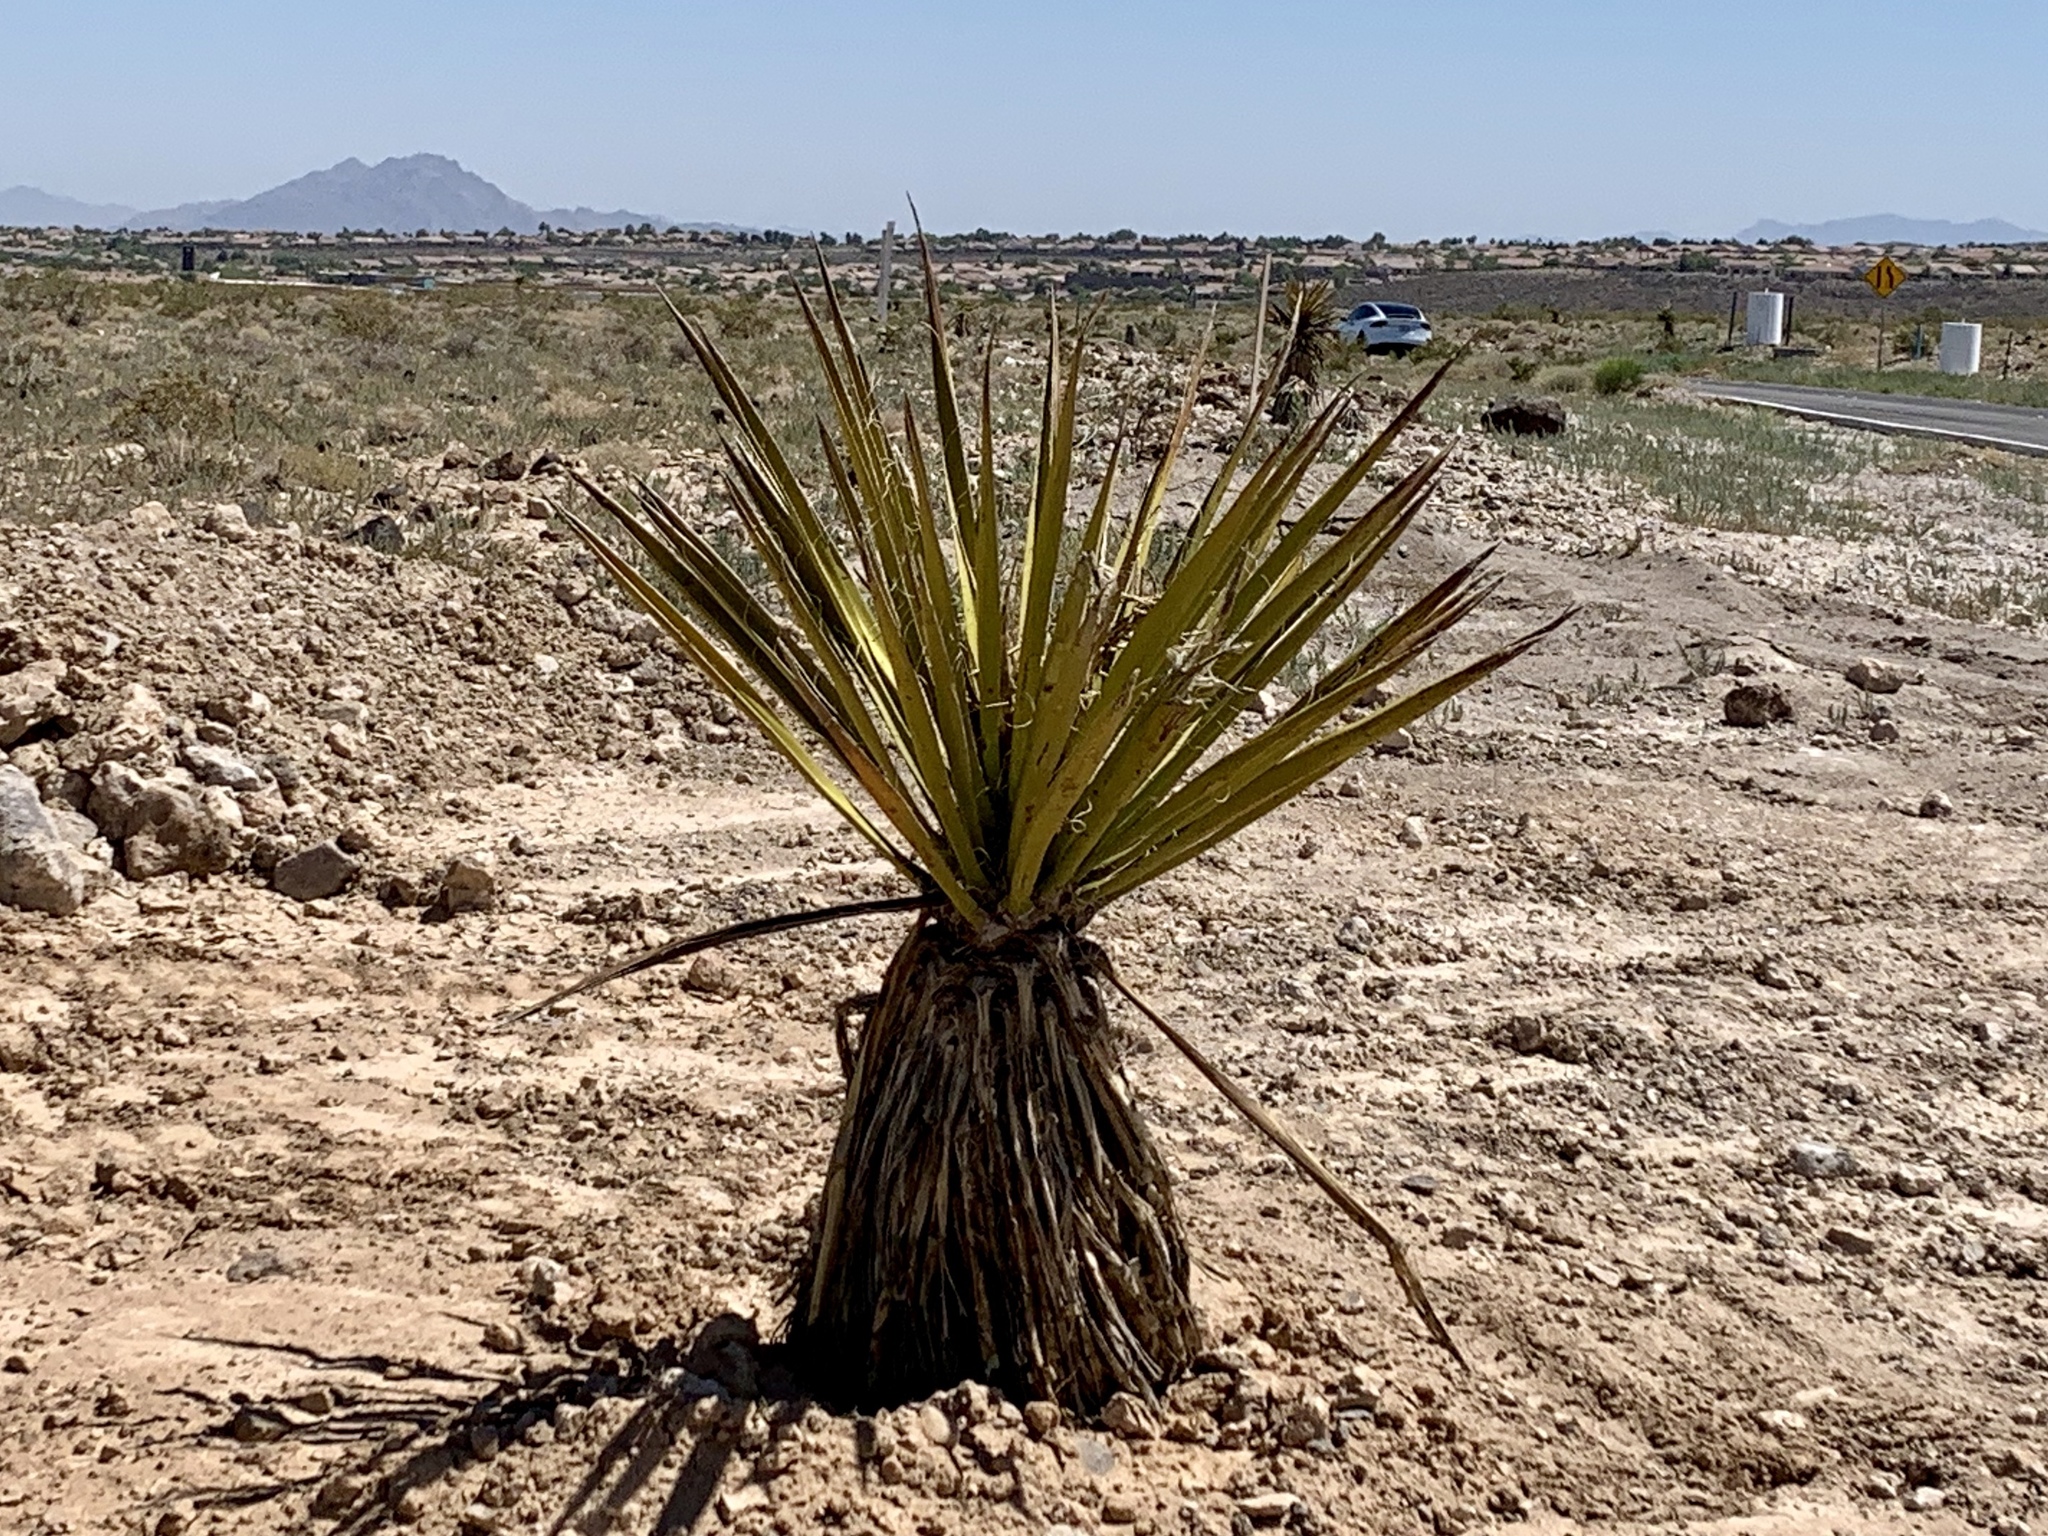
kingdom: Plantae
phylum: Tracheophyta
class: Liliopsida
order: Asparagales
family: Asparagaceae
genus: Yucca
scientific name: Yucca schidigera
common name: Mojave yucca
